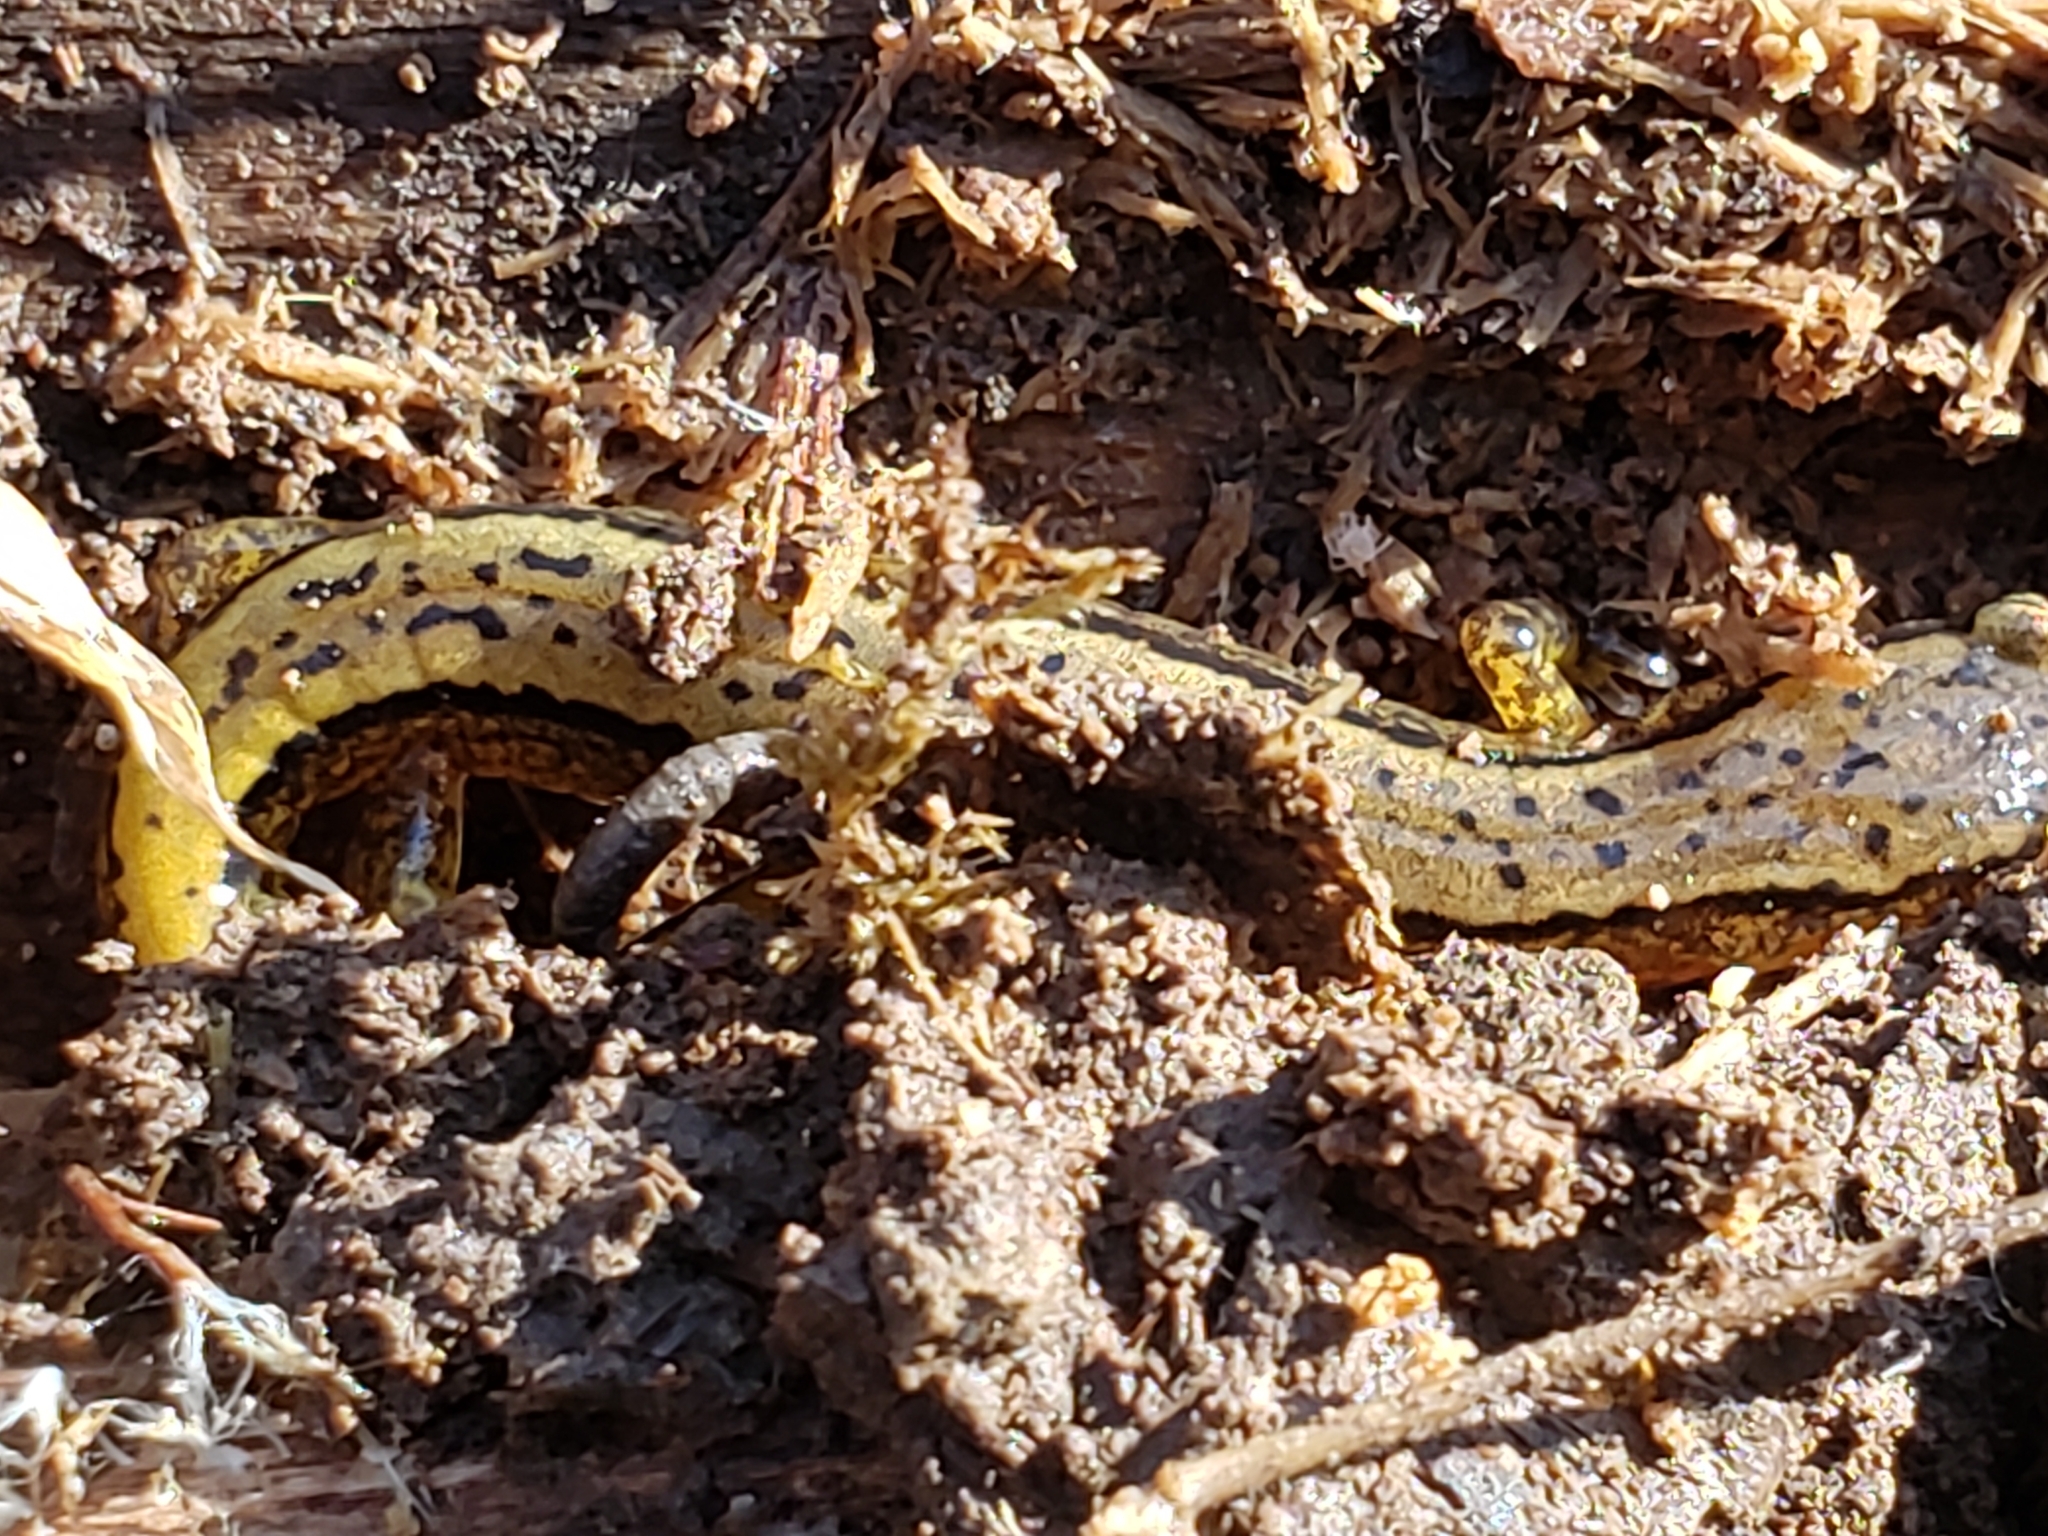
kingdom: Animalia
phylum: Chordata
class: Amphibia
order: Caudata
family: Plethodontidae
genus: Eurycea
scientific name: Eurycea bislineata
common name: Northern two-lined salamander
